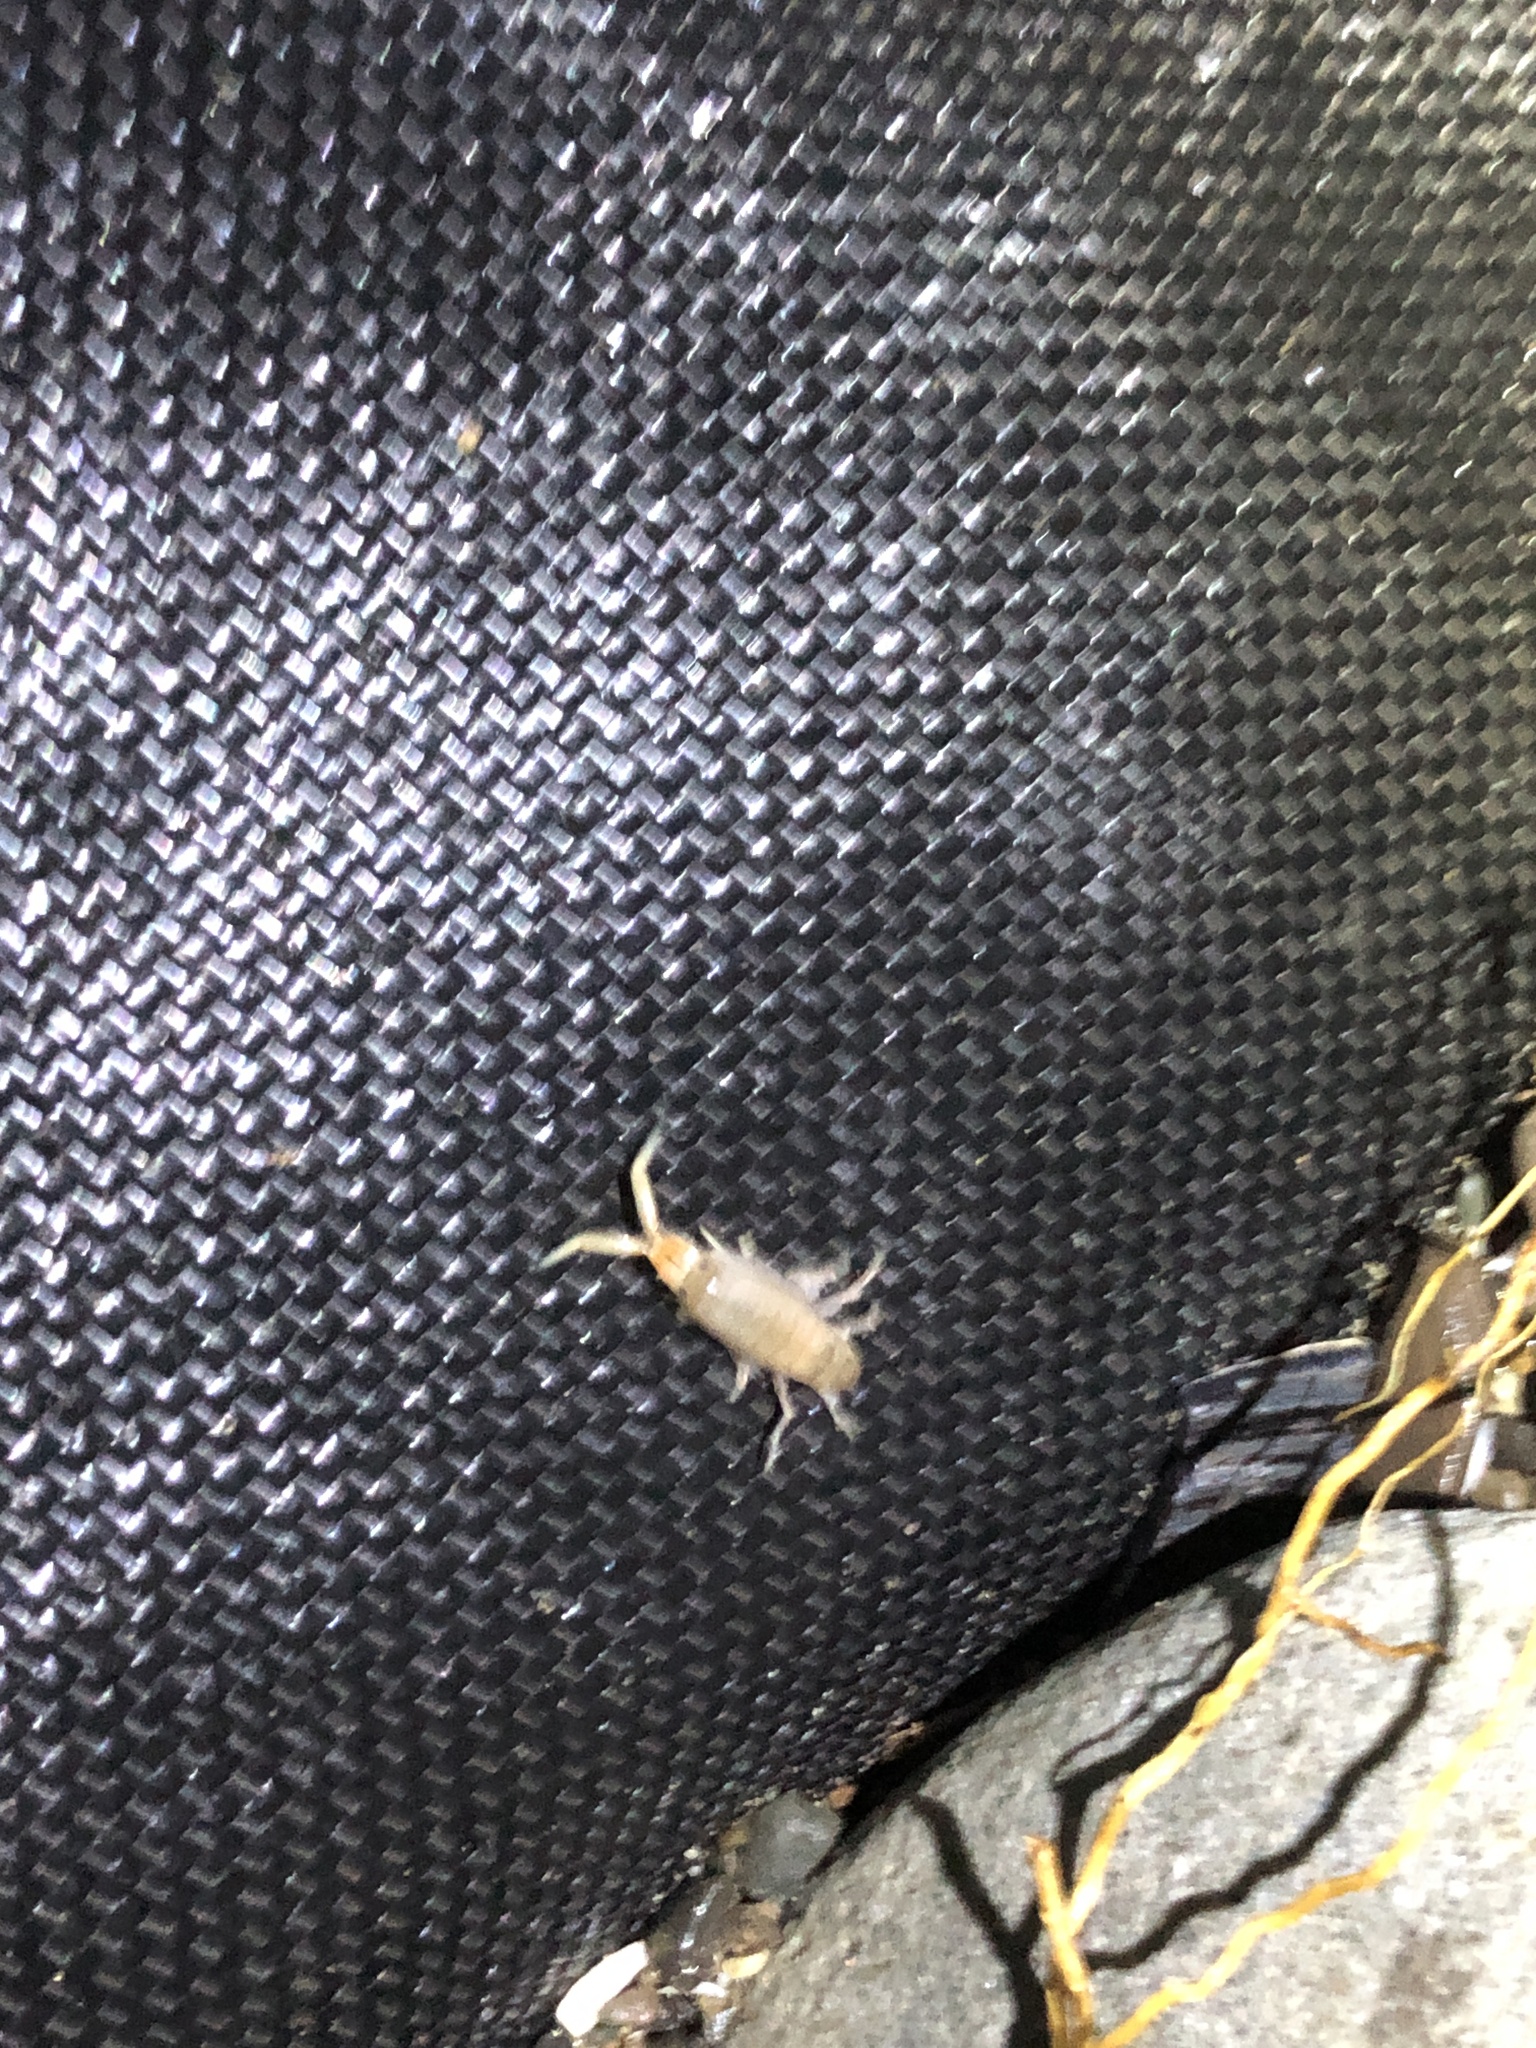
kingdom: Animalia
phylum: Arthropoda
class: Malacostraca
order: Amphipoda
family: Talitridae
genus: Megalorchestia
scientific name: Megalorchestia corniculata
